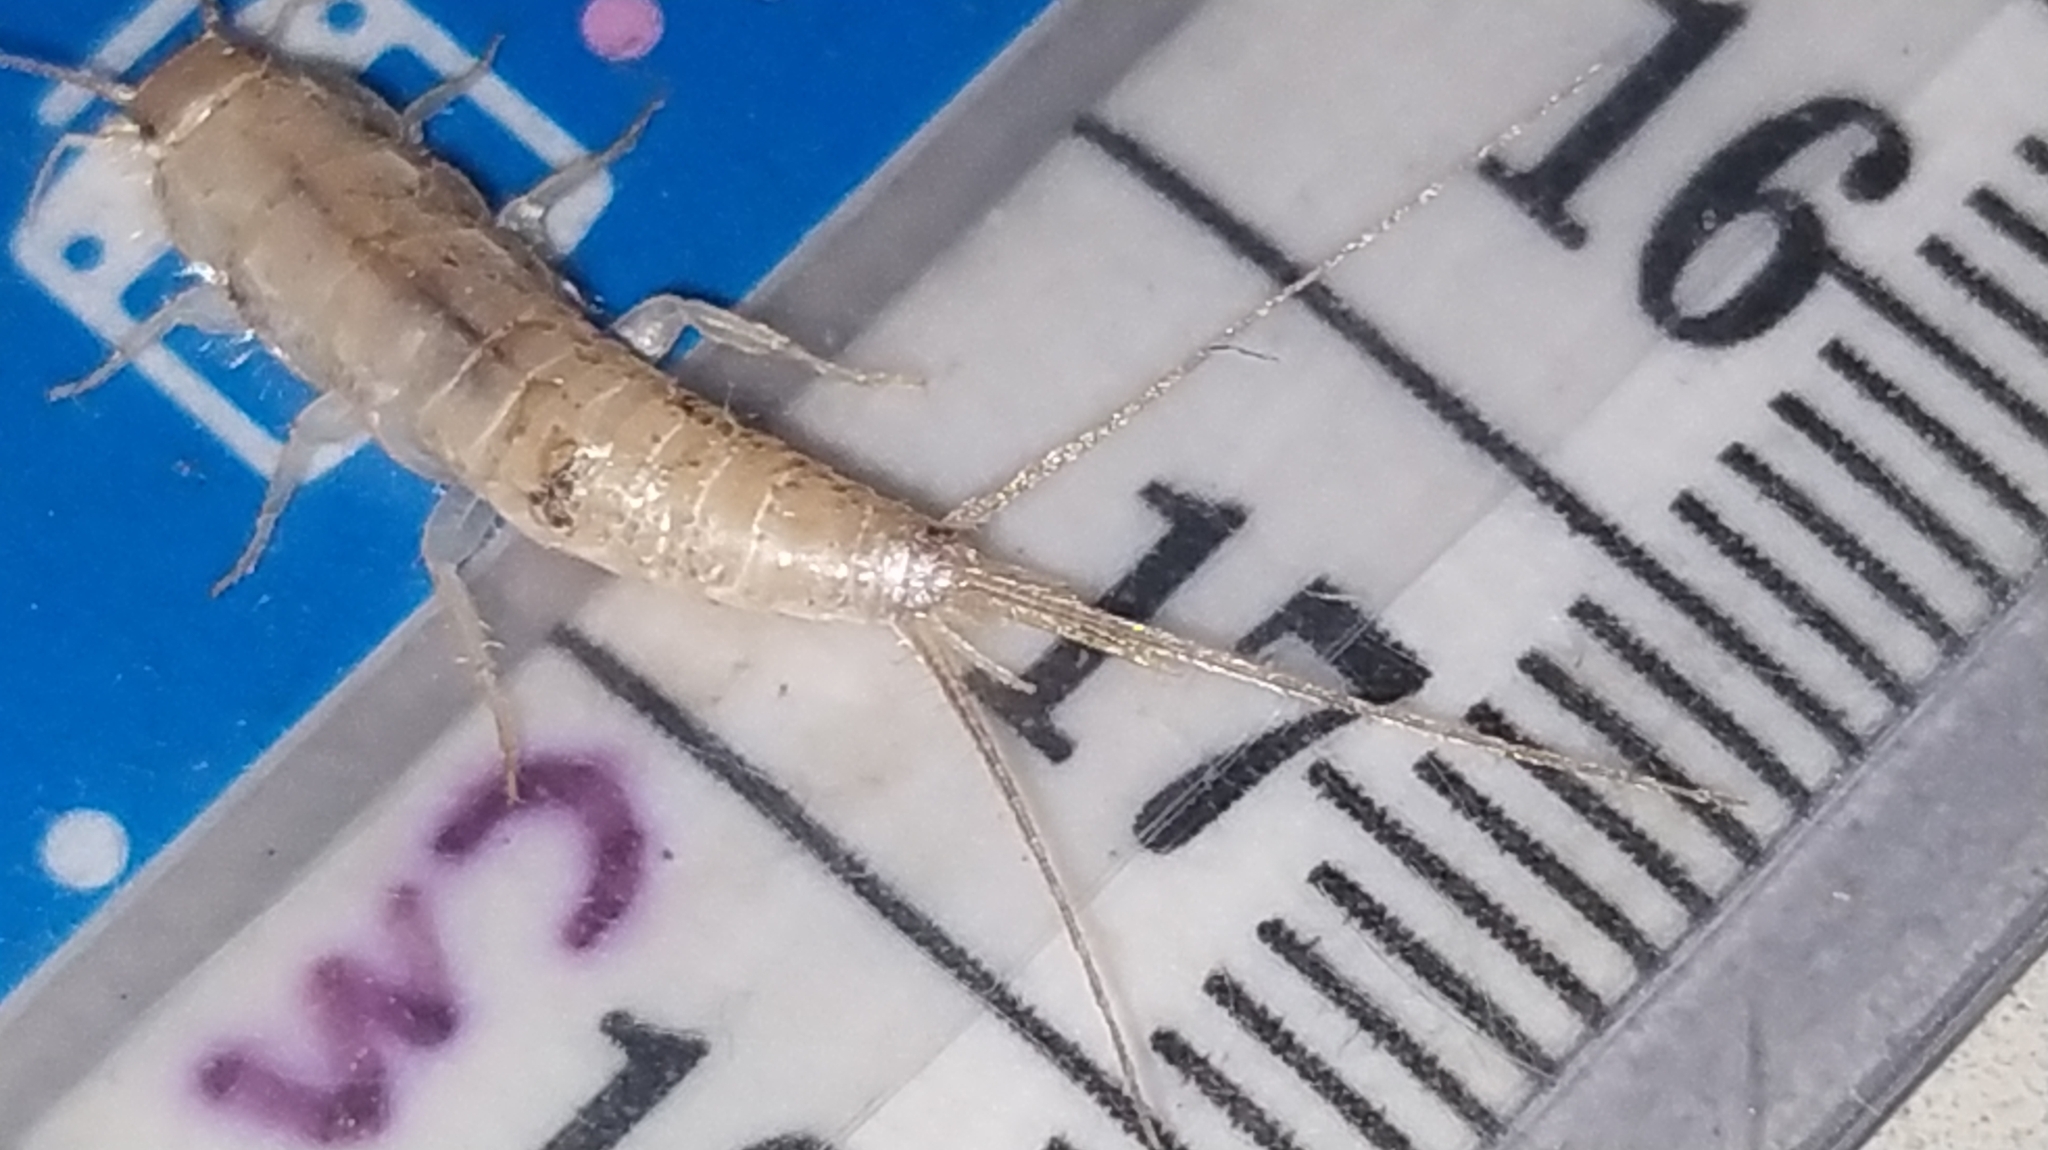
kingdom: Animalia
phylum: Arthropoda
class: Insecta
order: Zygentoma
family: Lepismatidae
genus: Ctenolepisma
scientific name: Ctenolepisma longicaudatum
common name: Silverfish
